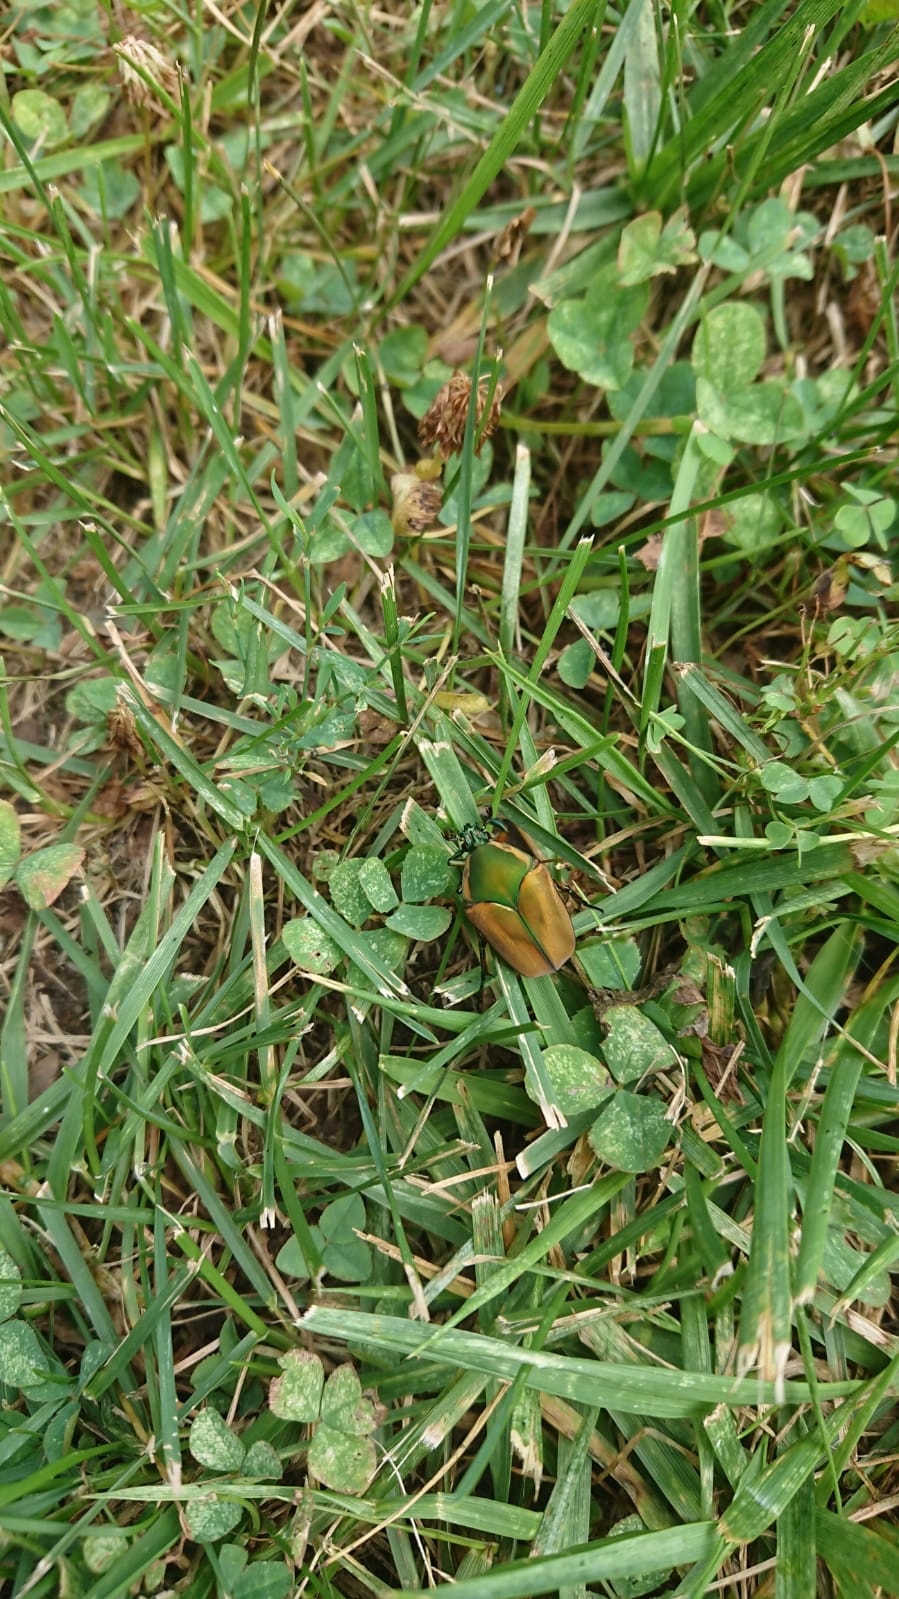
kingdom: Animalia
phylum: Arthropoda
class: Insecta
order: Coleoptera
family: Scarabaeidae
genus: Cotinis
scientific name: Cotinis nitida
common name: Common green june beetle
